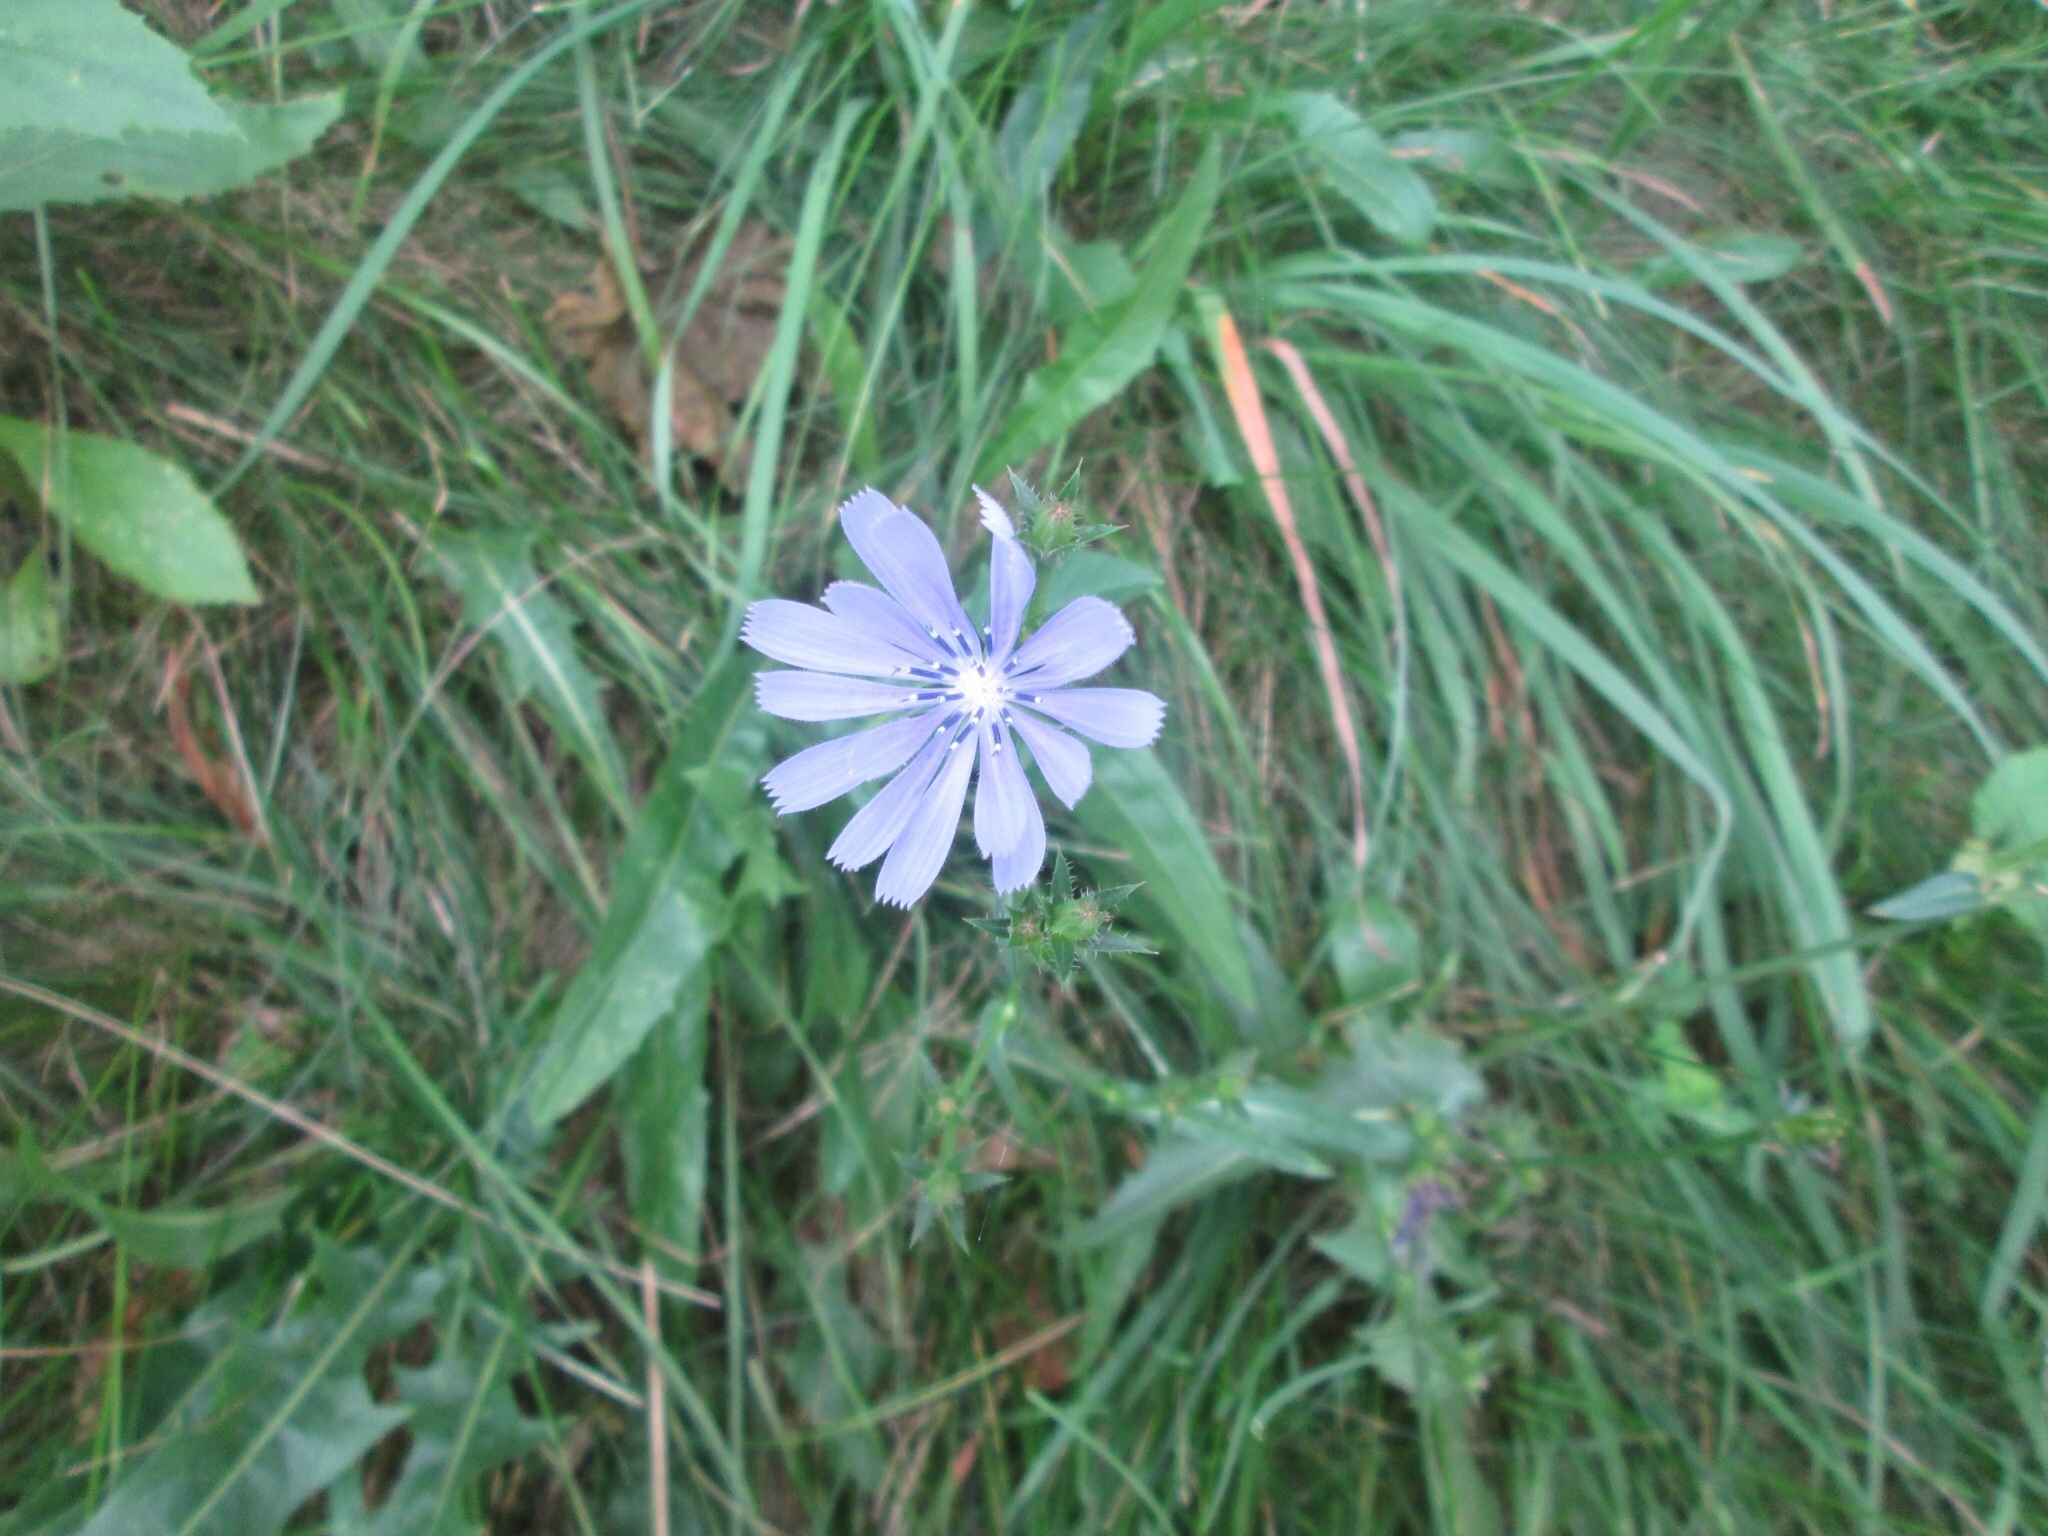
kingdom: Plantae
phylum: Tracheophyta
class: Magnoliopsida
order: Asterales
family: Asteraceae
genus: Cichorium
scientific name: Cichorium intybus
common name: Chicory
